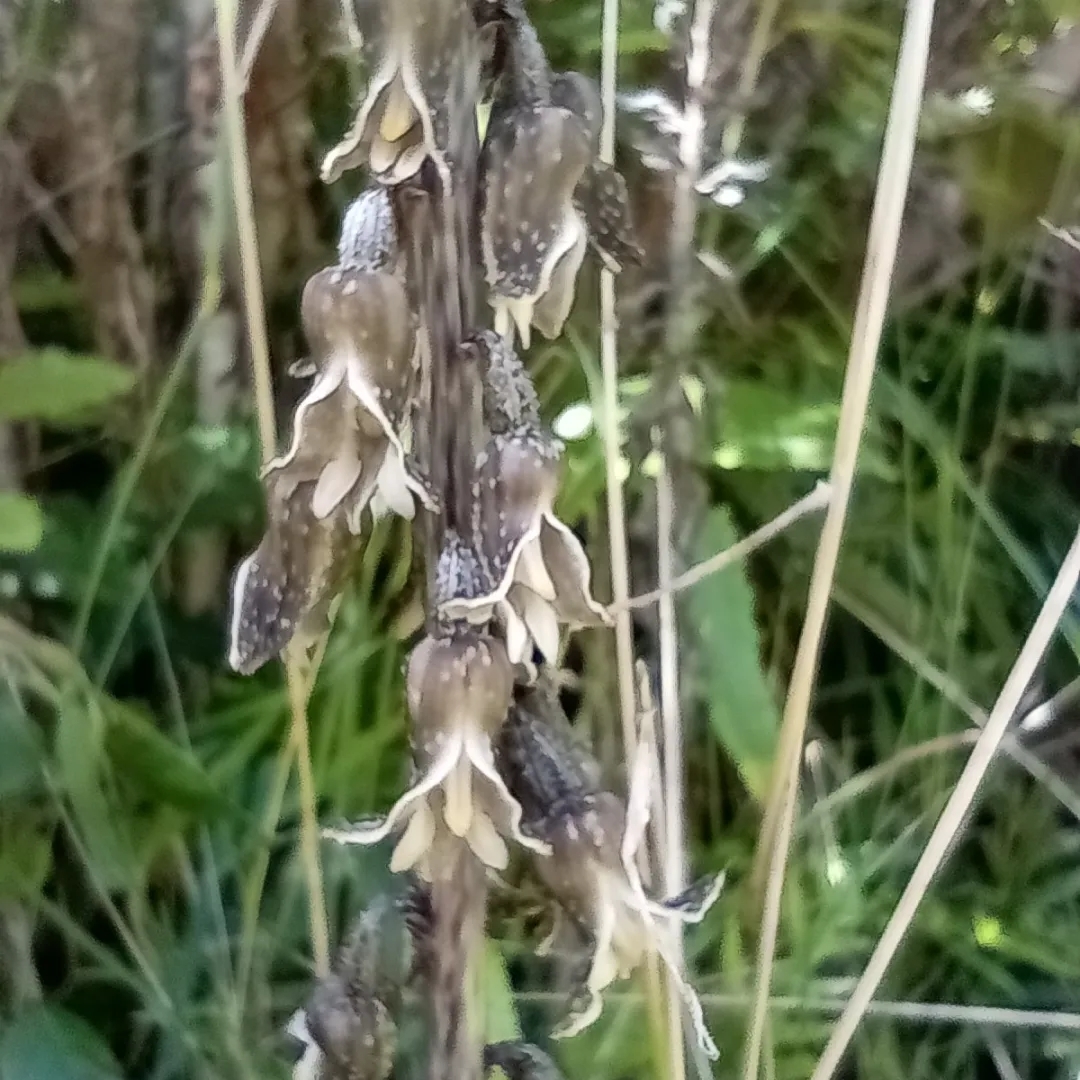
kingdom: Plantae
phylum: Tracheophyta
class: Liliopsida
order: Asparagales
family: Orchidaceae
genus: Gastrodia
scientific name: Gastrodia molloyi
